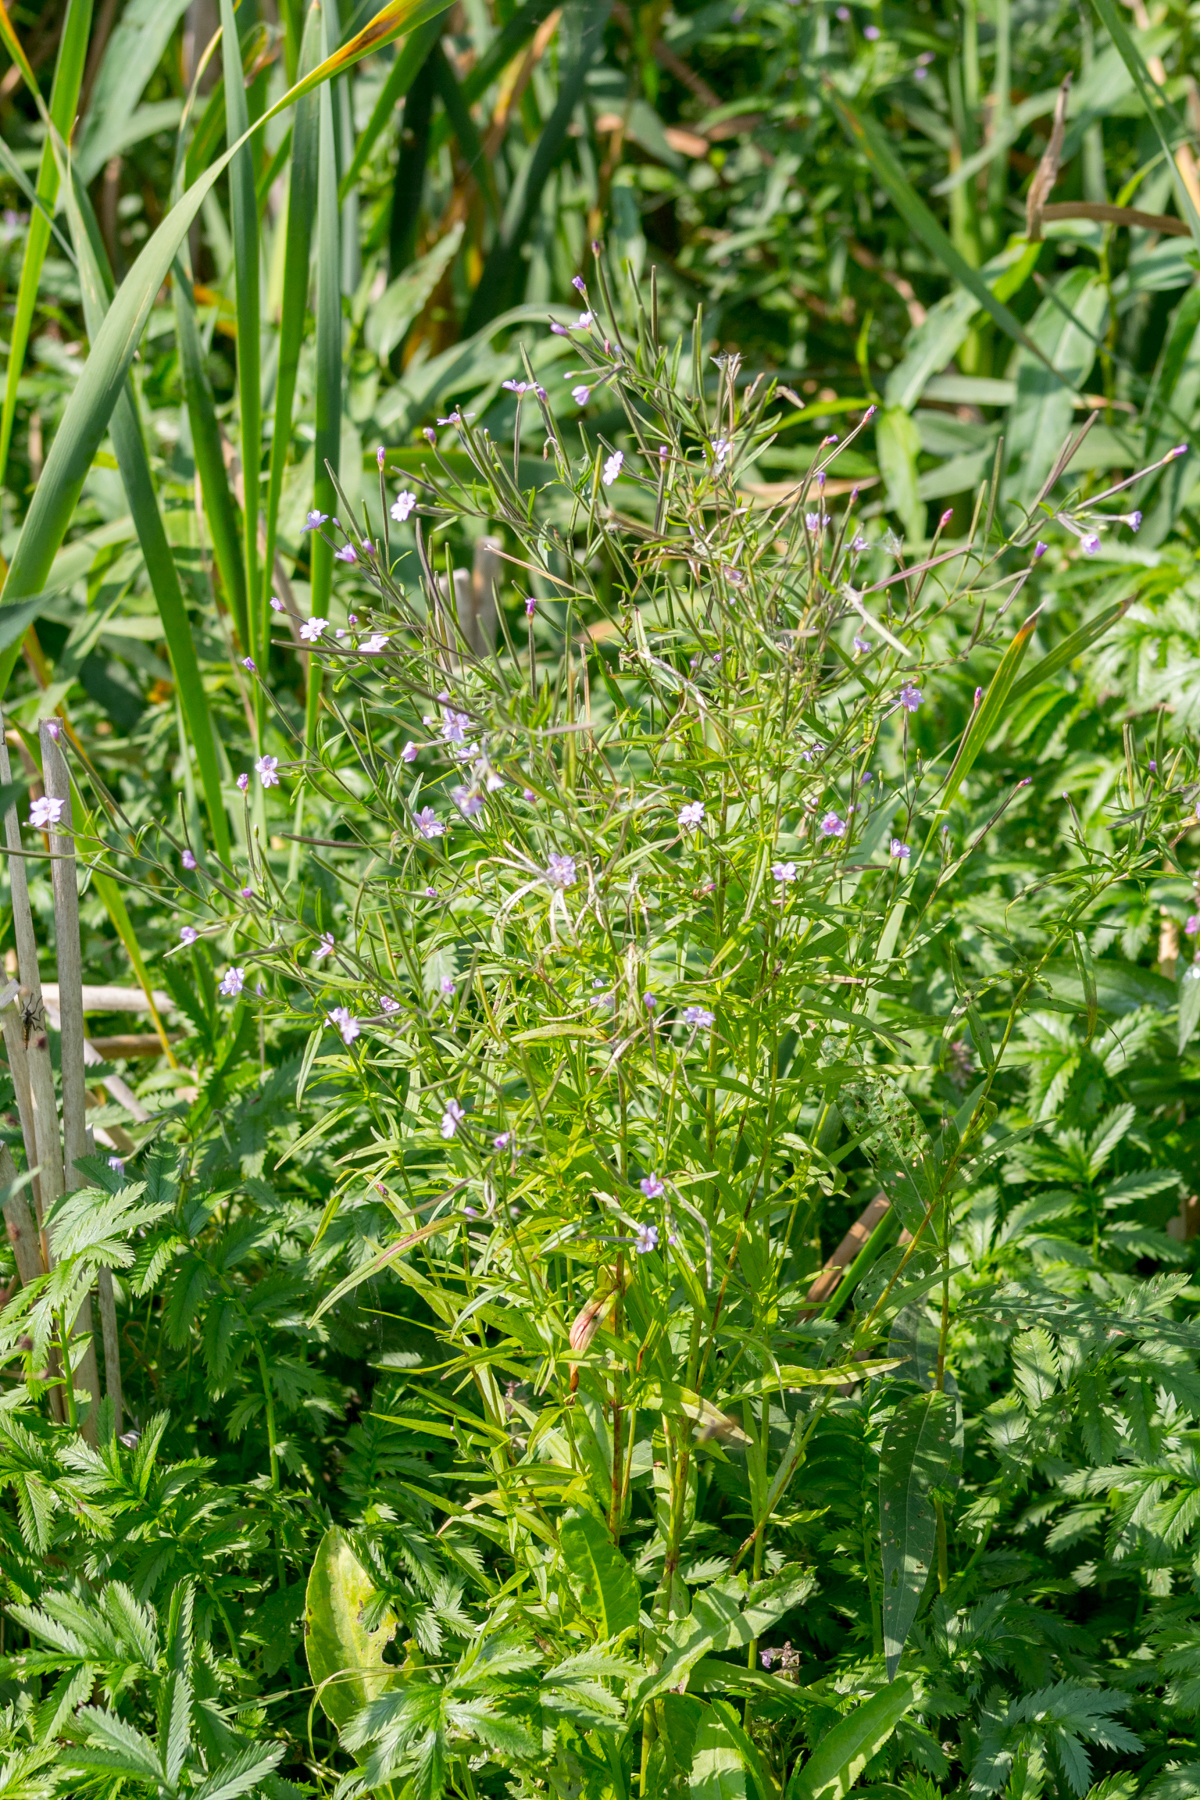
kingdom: Plantae
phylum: Tracheophyta
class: Magnoliopsida
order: Myrtales
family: Onagraceae
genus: Epilobium
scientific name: Epilobium palustre
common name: Marsh willowherb
